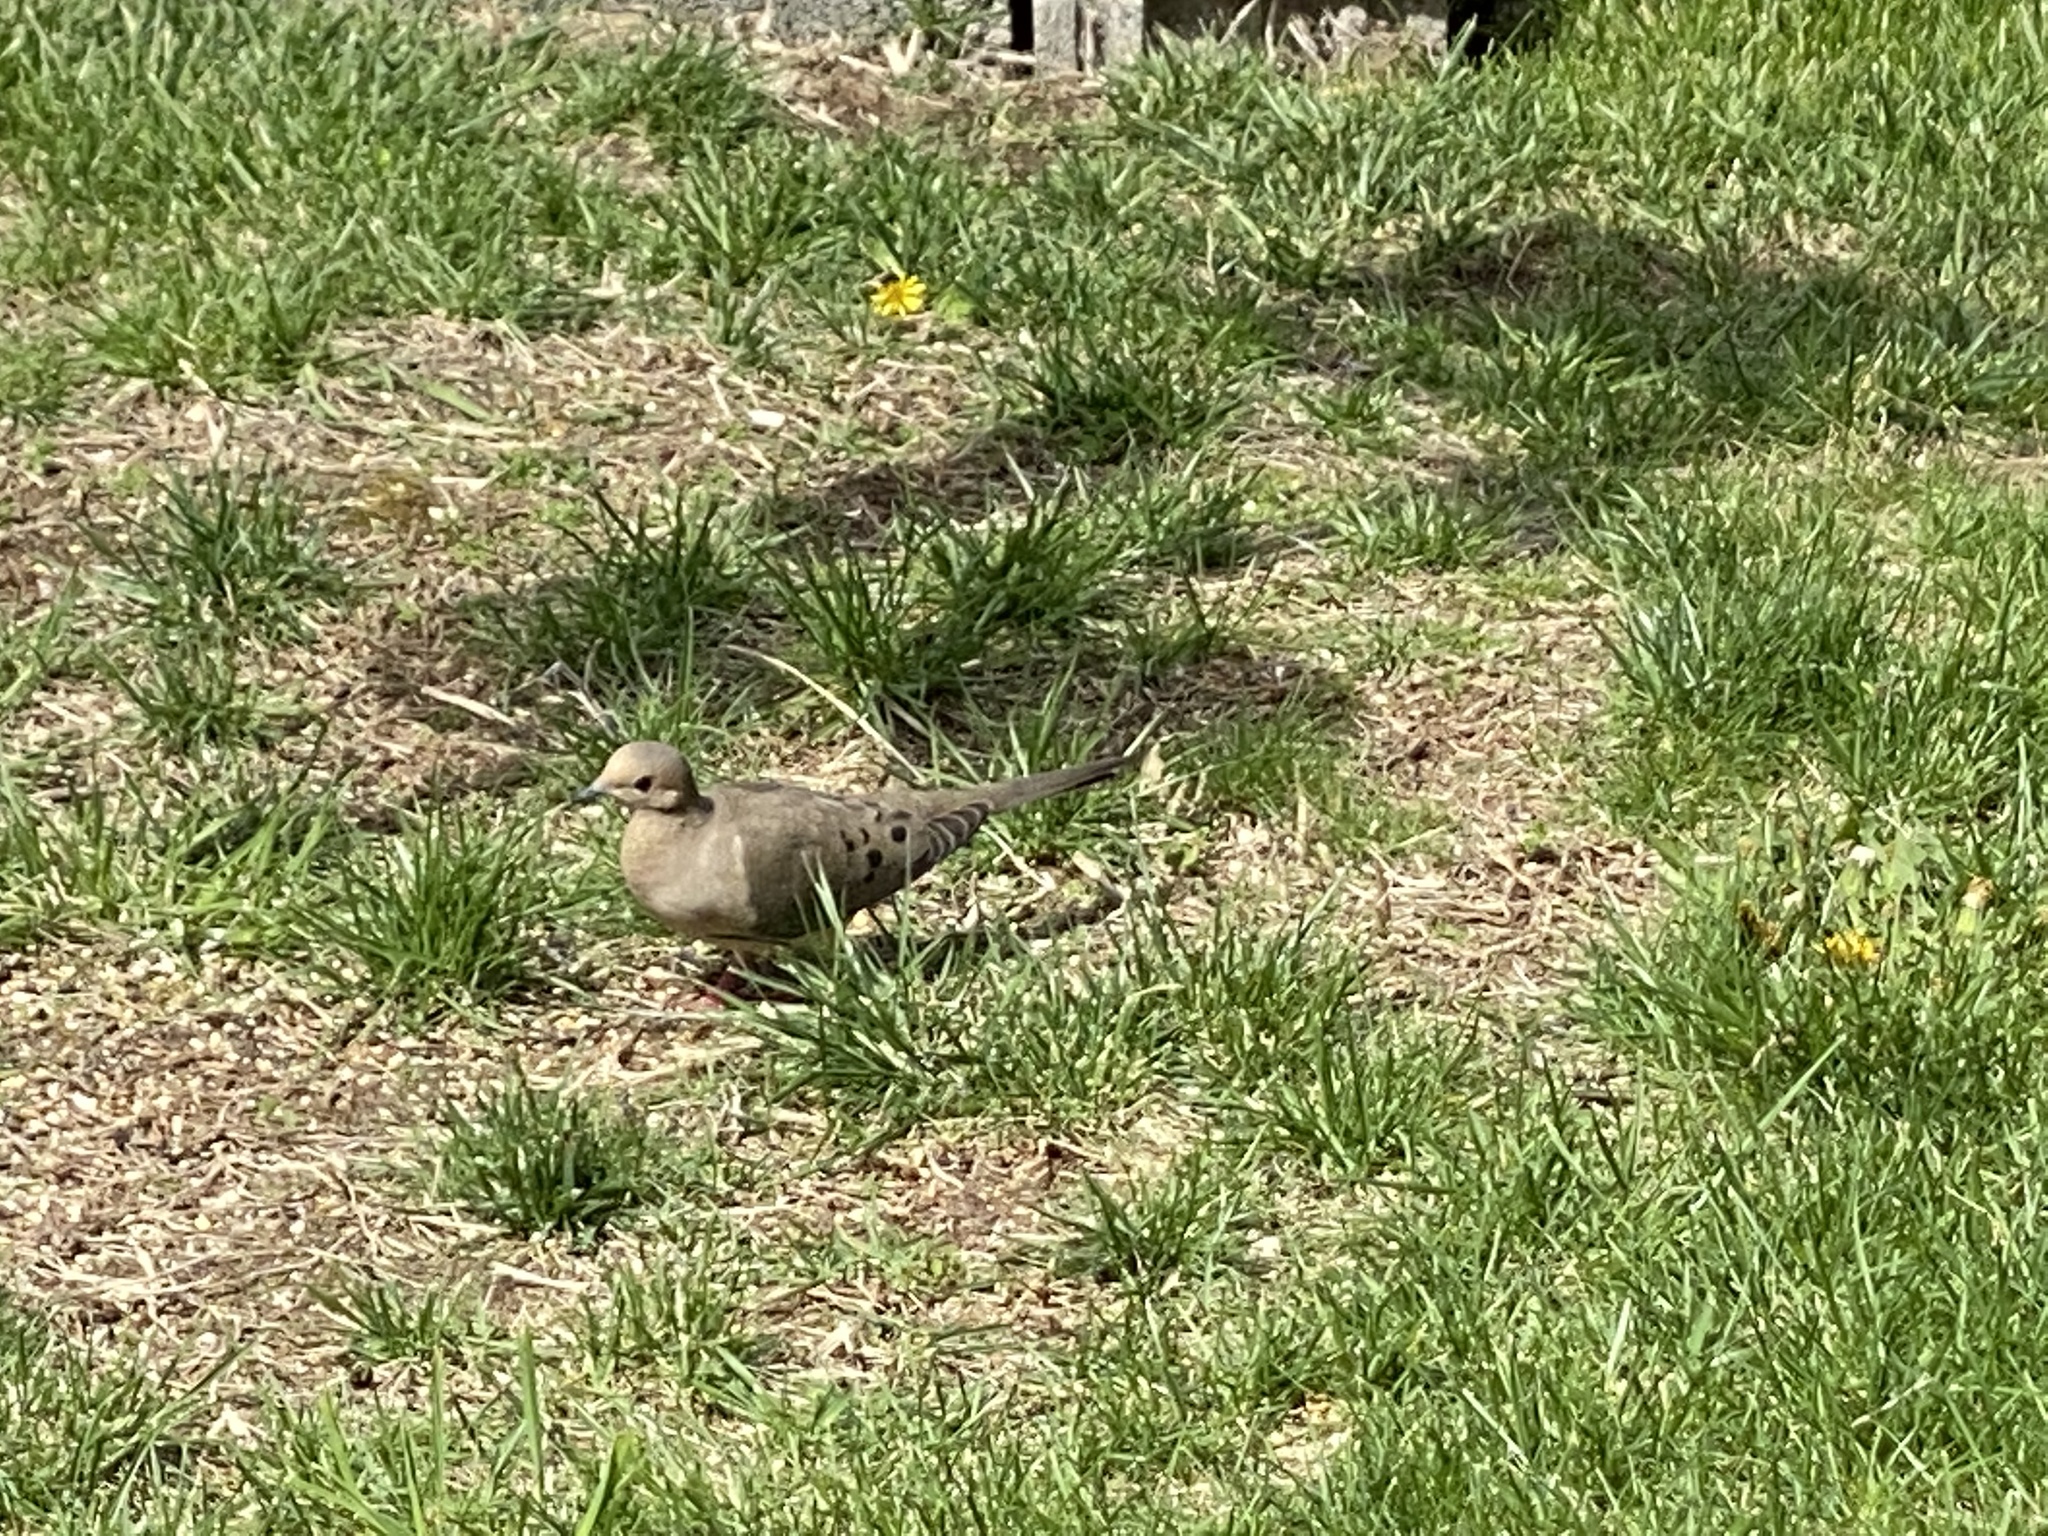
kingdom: Animalia
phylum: Chordata
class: Aves
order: Columbiformes
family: Columbidae
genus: Zenaida
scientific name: Zenaida macroura
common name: Mourning dove
